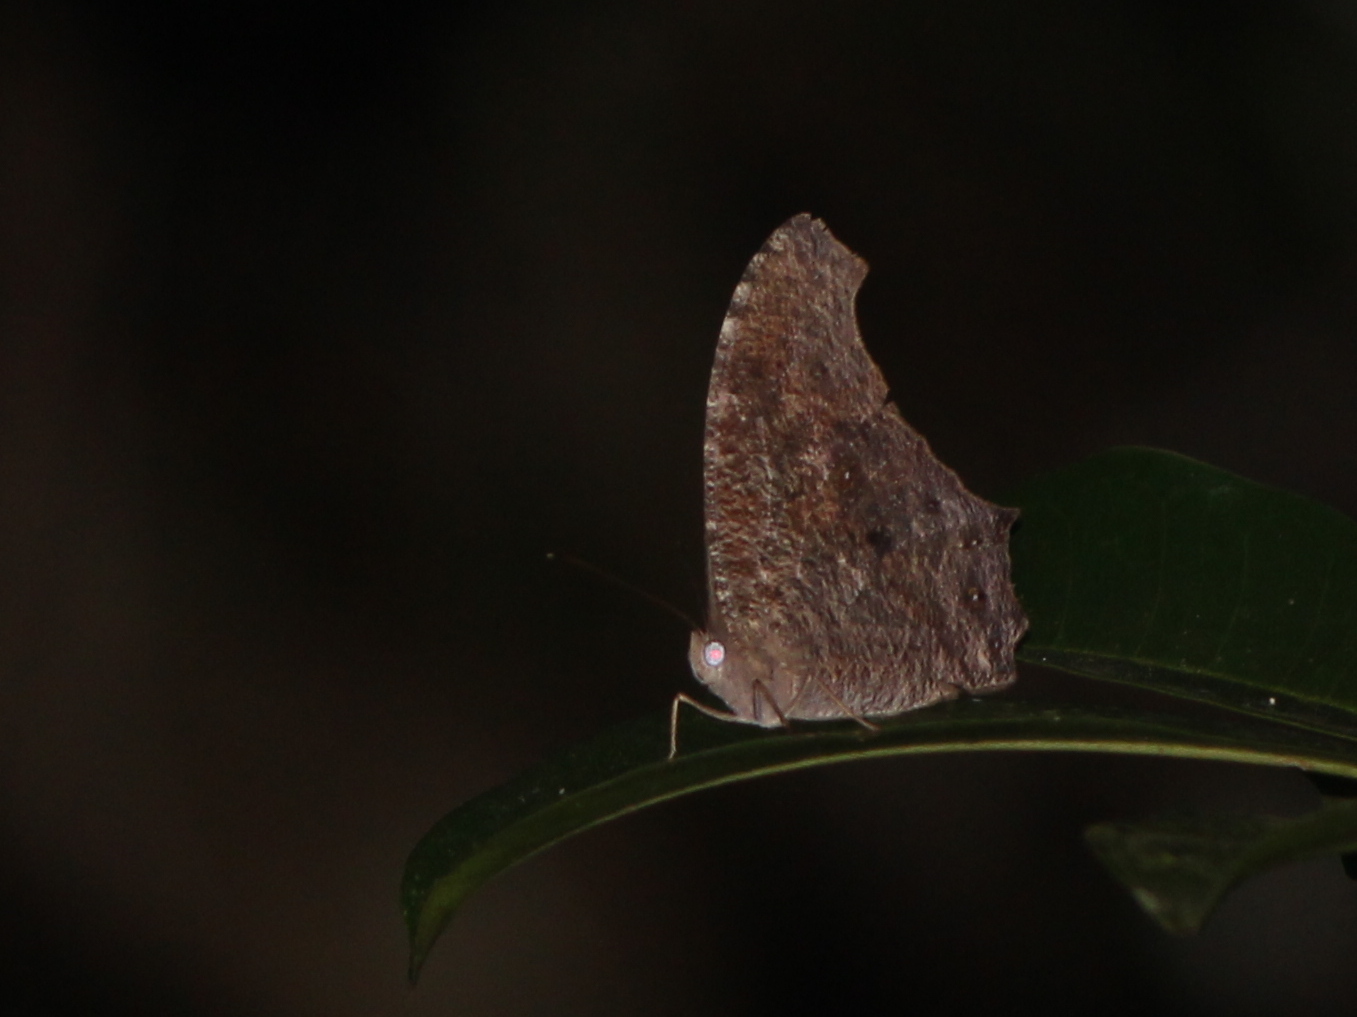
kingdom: Animalia
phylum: Arthropoda
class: Insecta
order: Lepidoptera
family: Nymphalidae
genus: Melanitis
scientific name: Melanitis leda
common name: Twilight brown
